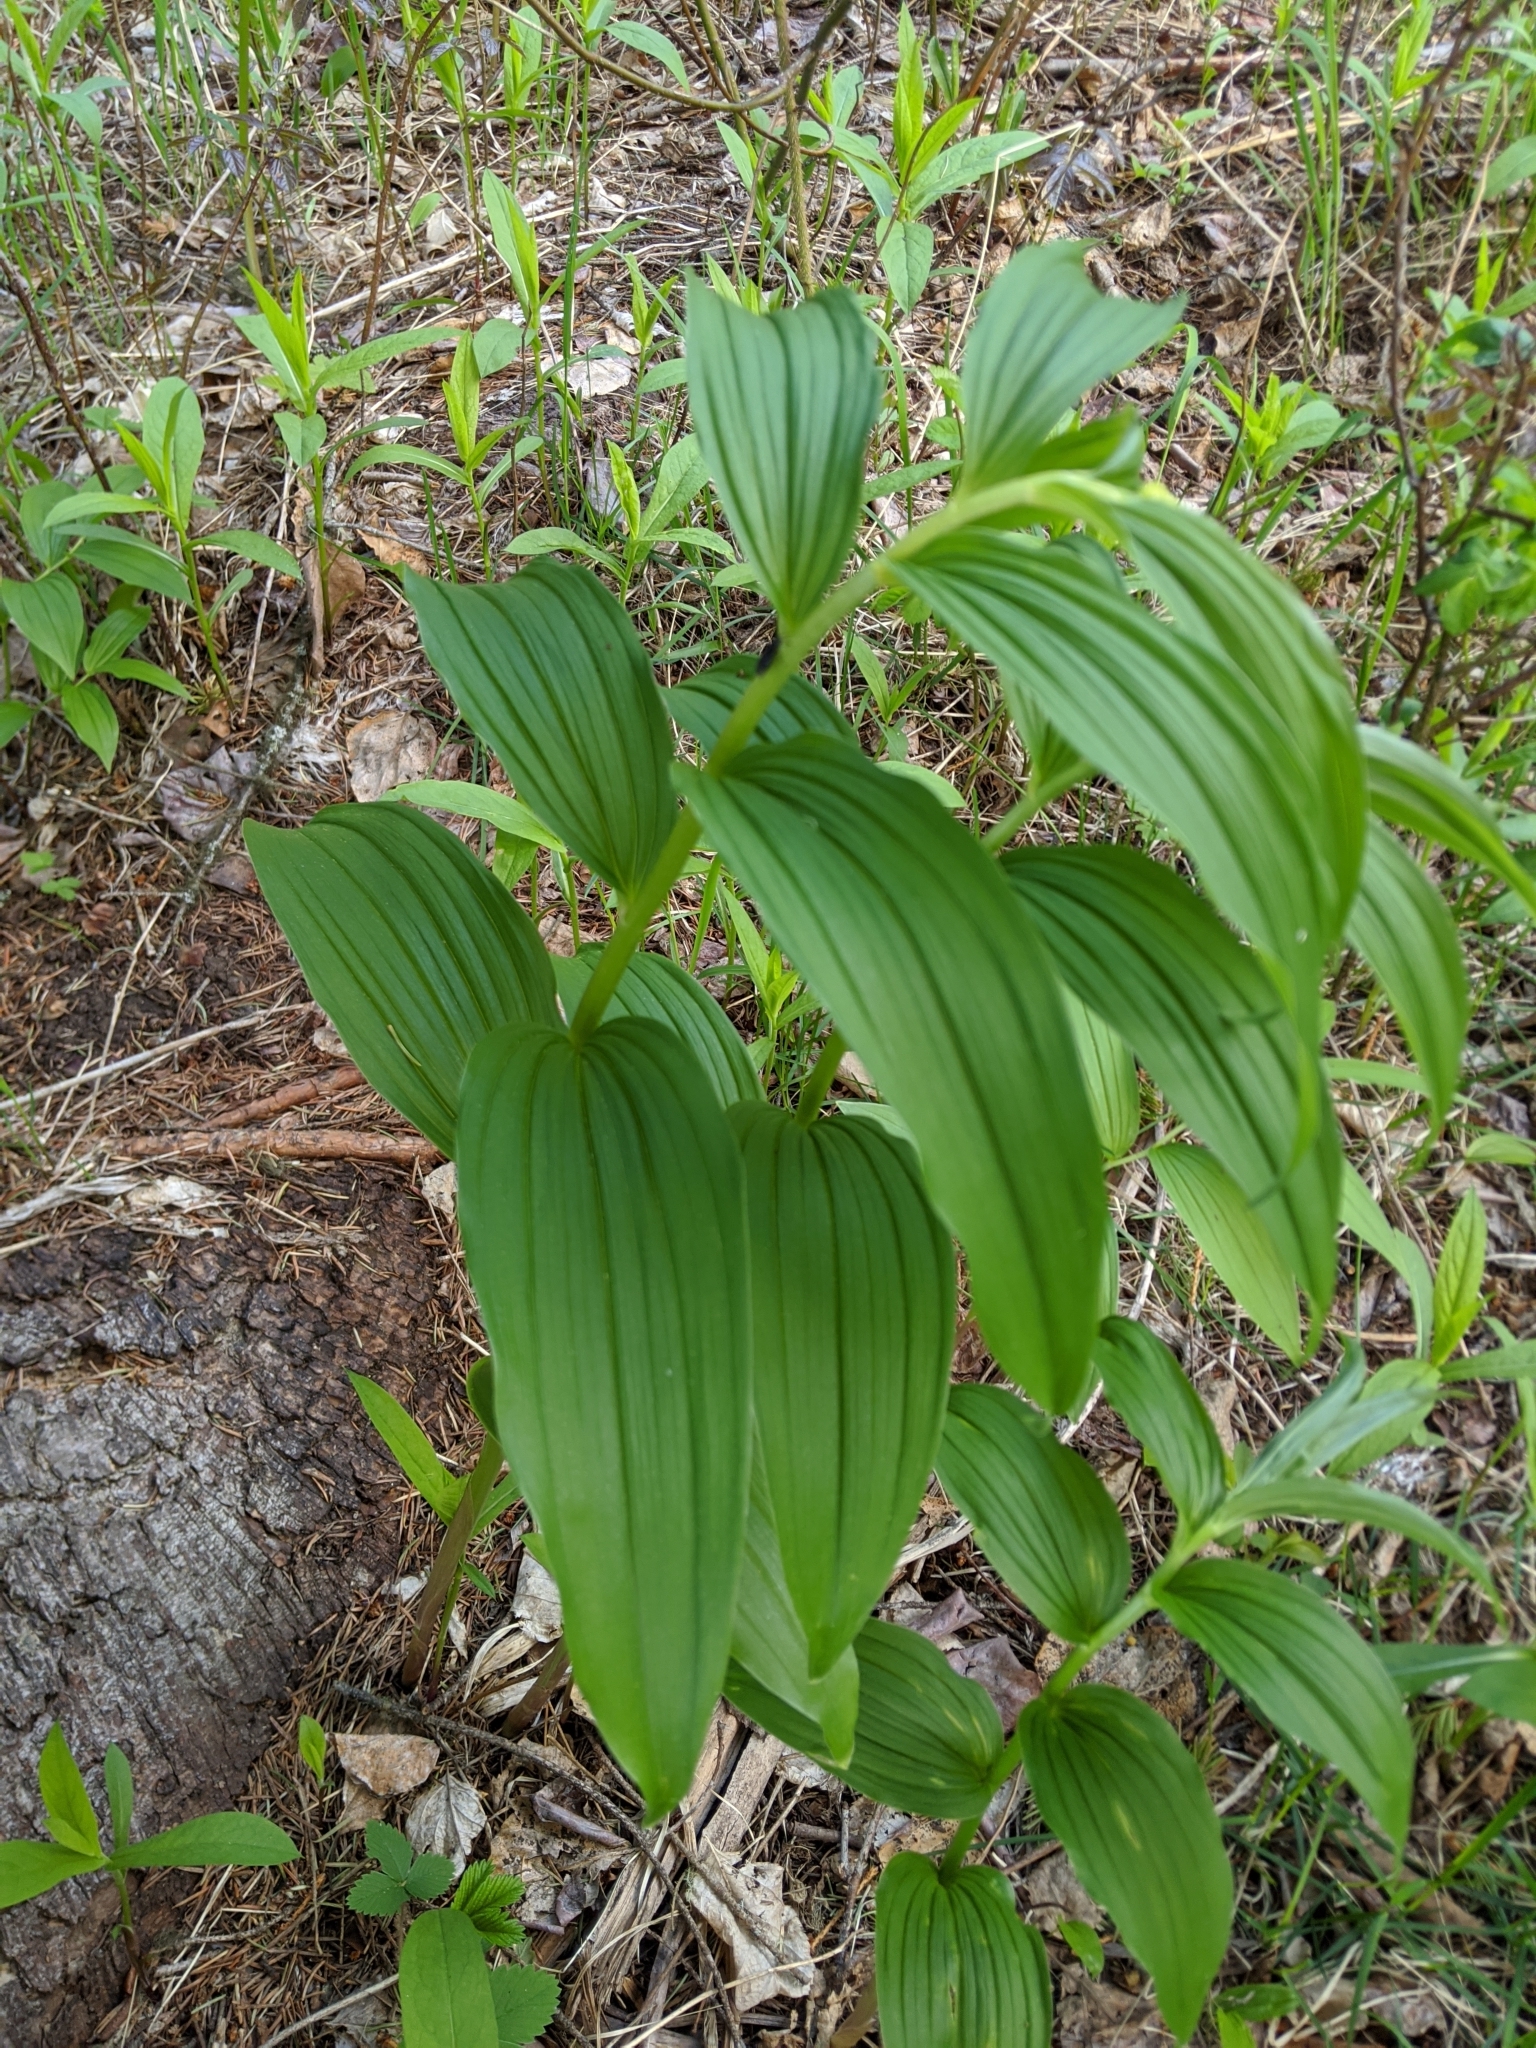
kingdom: Plantae
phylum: Tracheophyta
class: Liliopsida
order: Asparagales
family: Asparagaceae
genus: Maianthemum
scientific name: Maianthemum racemosum
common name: False spikenard
